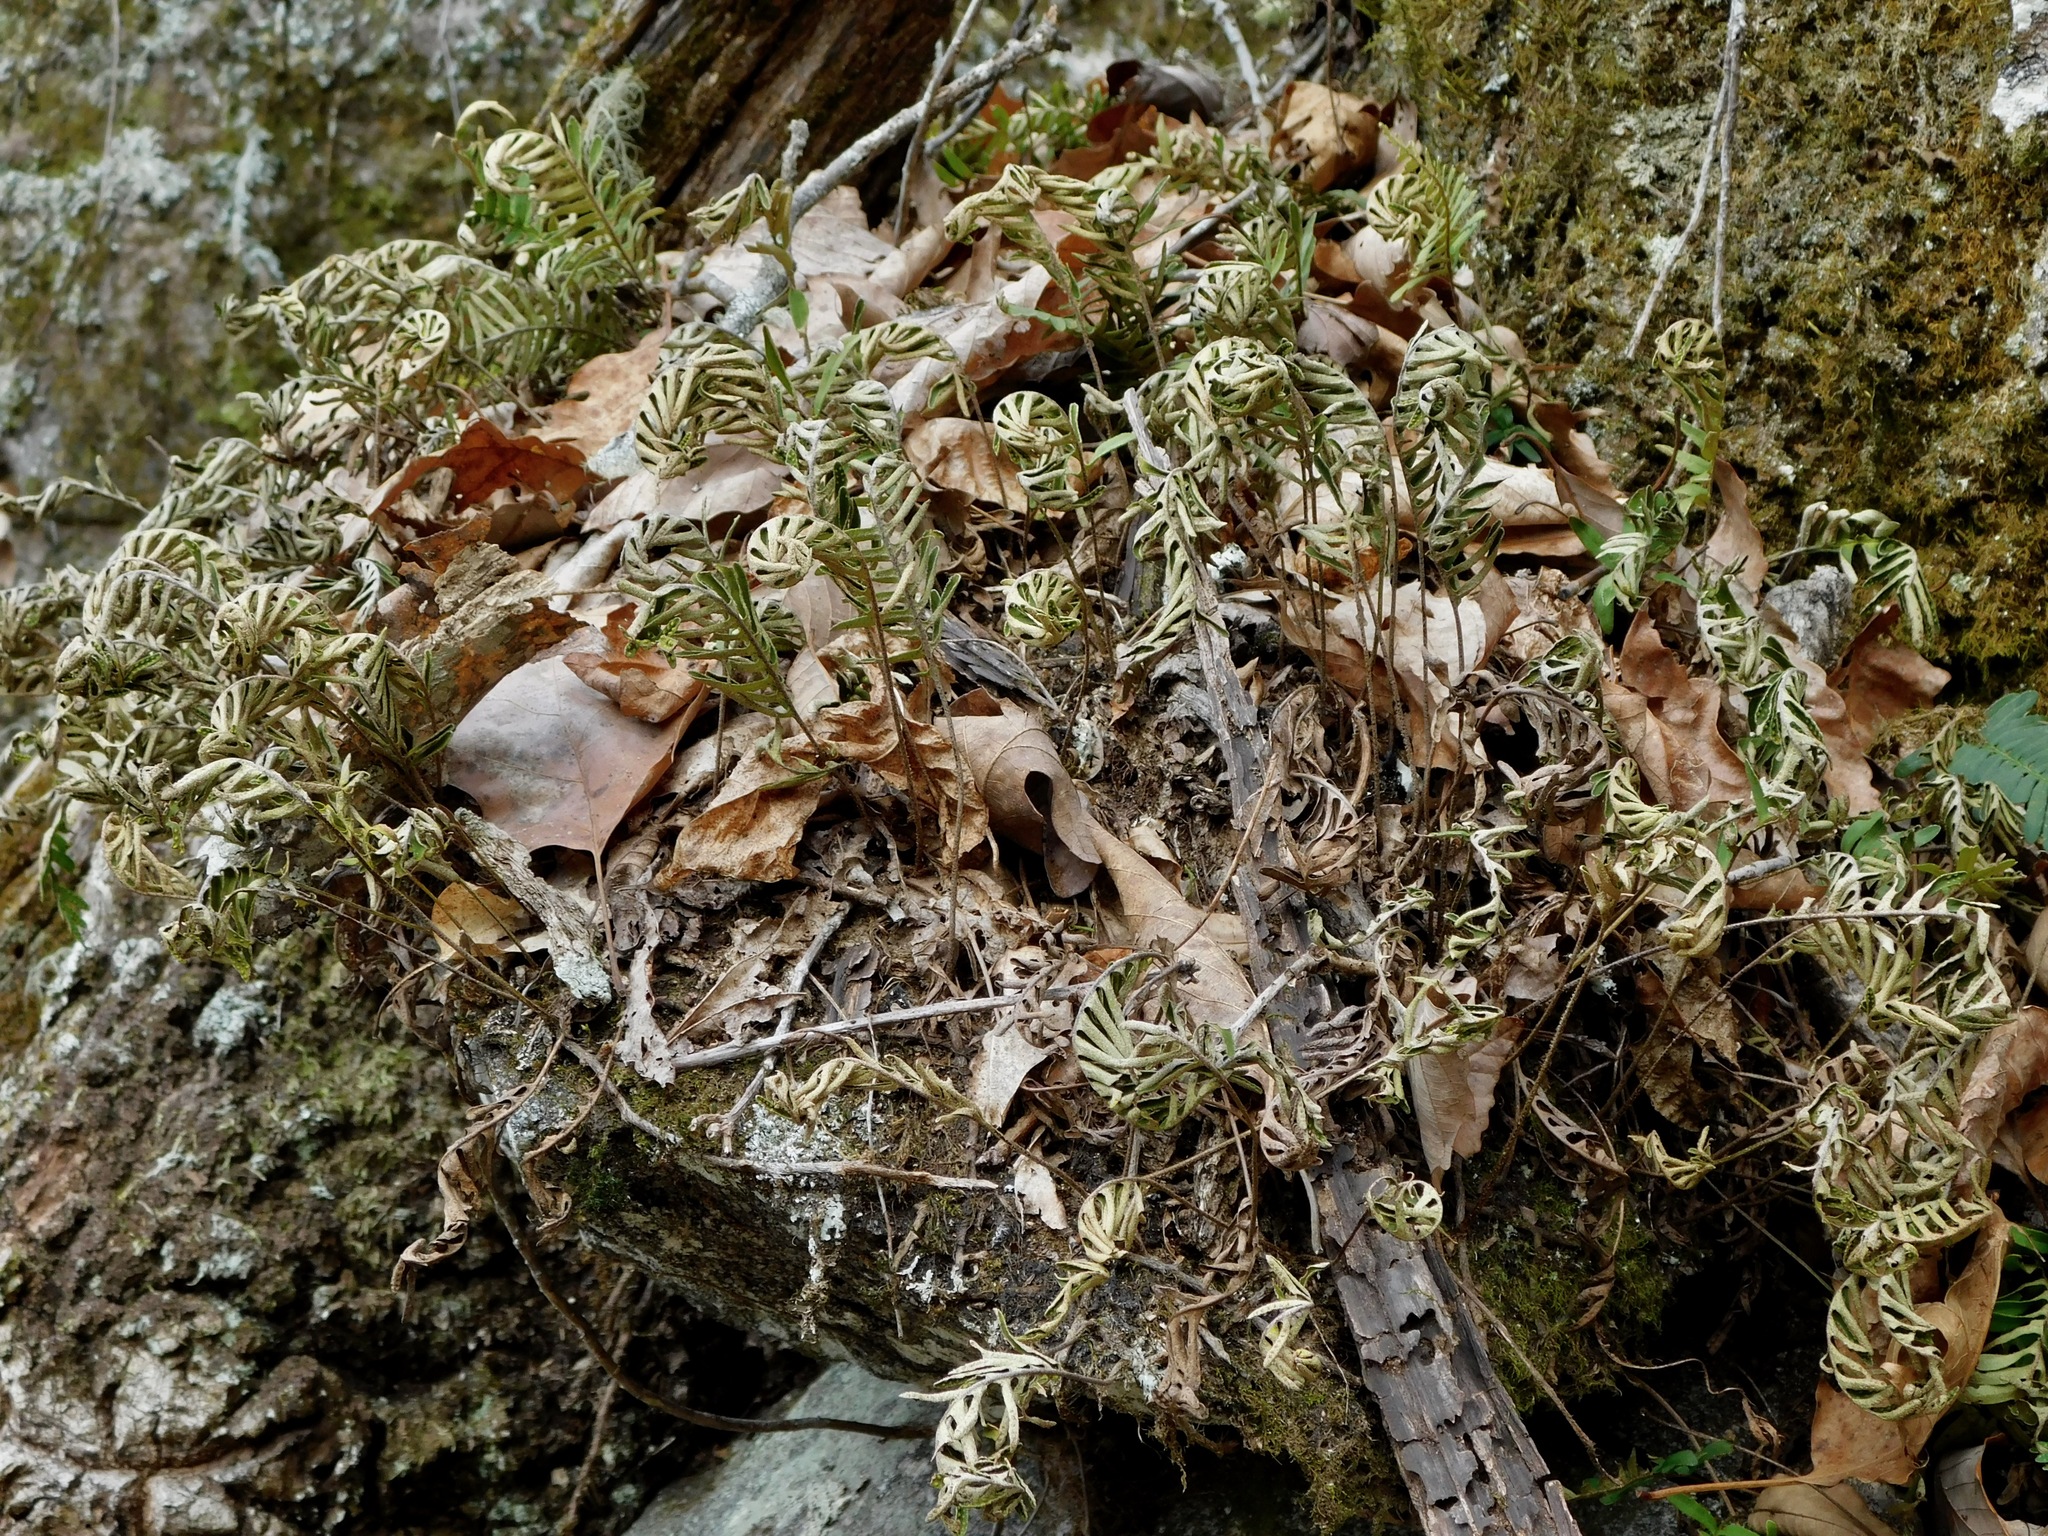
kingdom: Plantae
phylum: Tracheophyta
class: Polypodiopsida
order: Polypodiales
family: Polypodiaceae
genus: Pleopeltis
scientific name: Pleopeltis michauxiana
